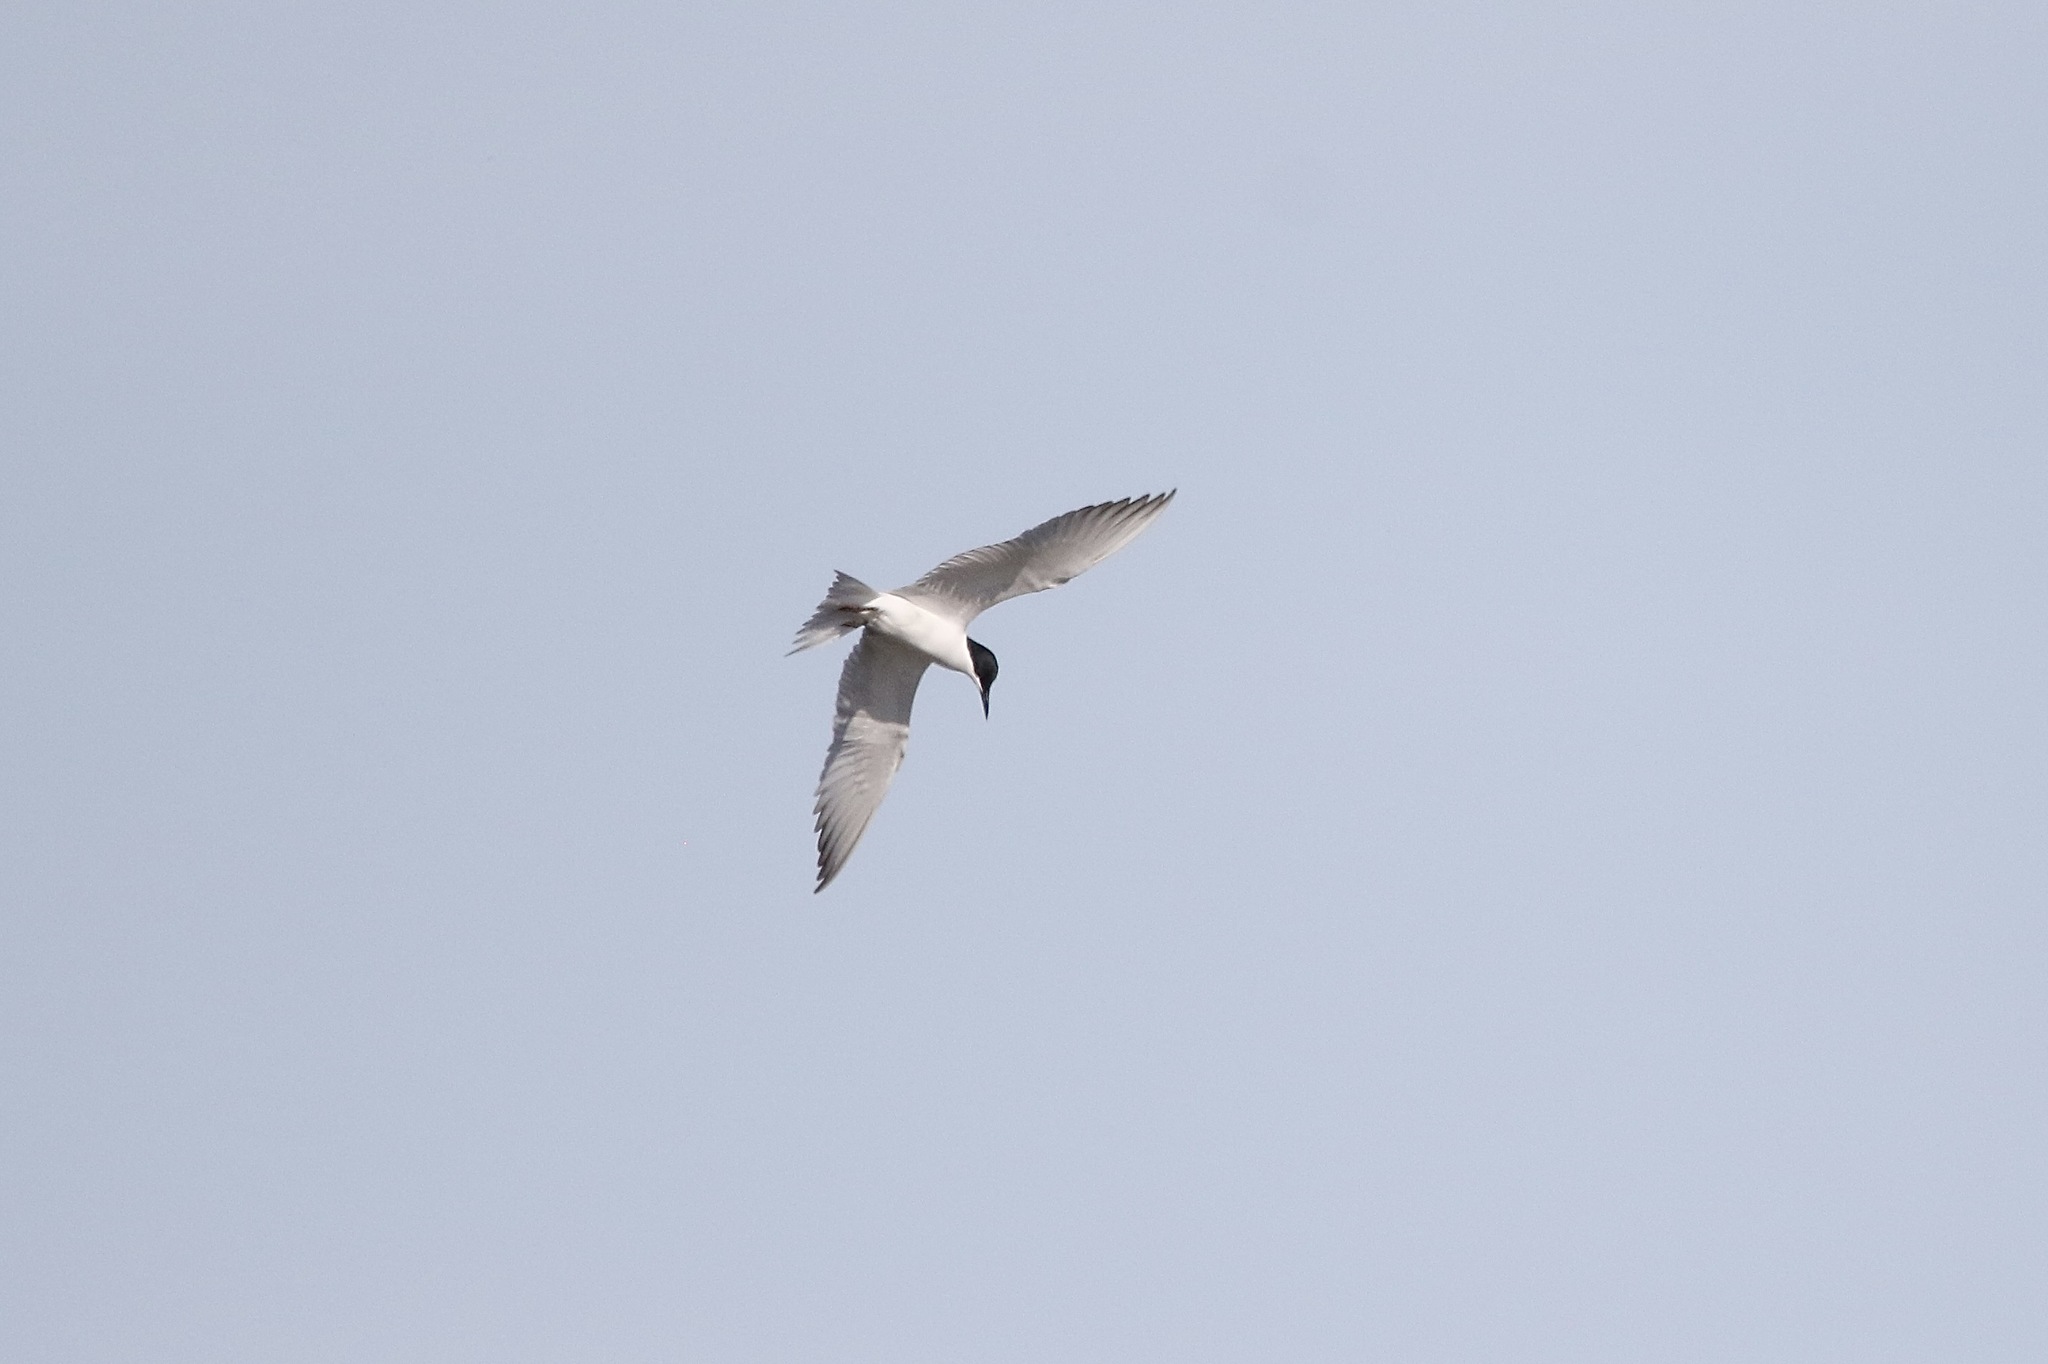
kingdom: Animalia
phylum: Chordata
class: Aves
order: Charadriiformes
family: Laridae
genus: Gelochelidon
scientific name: Gelochelidon nilotica
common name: Gull-billed tern
